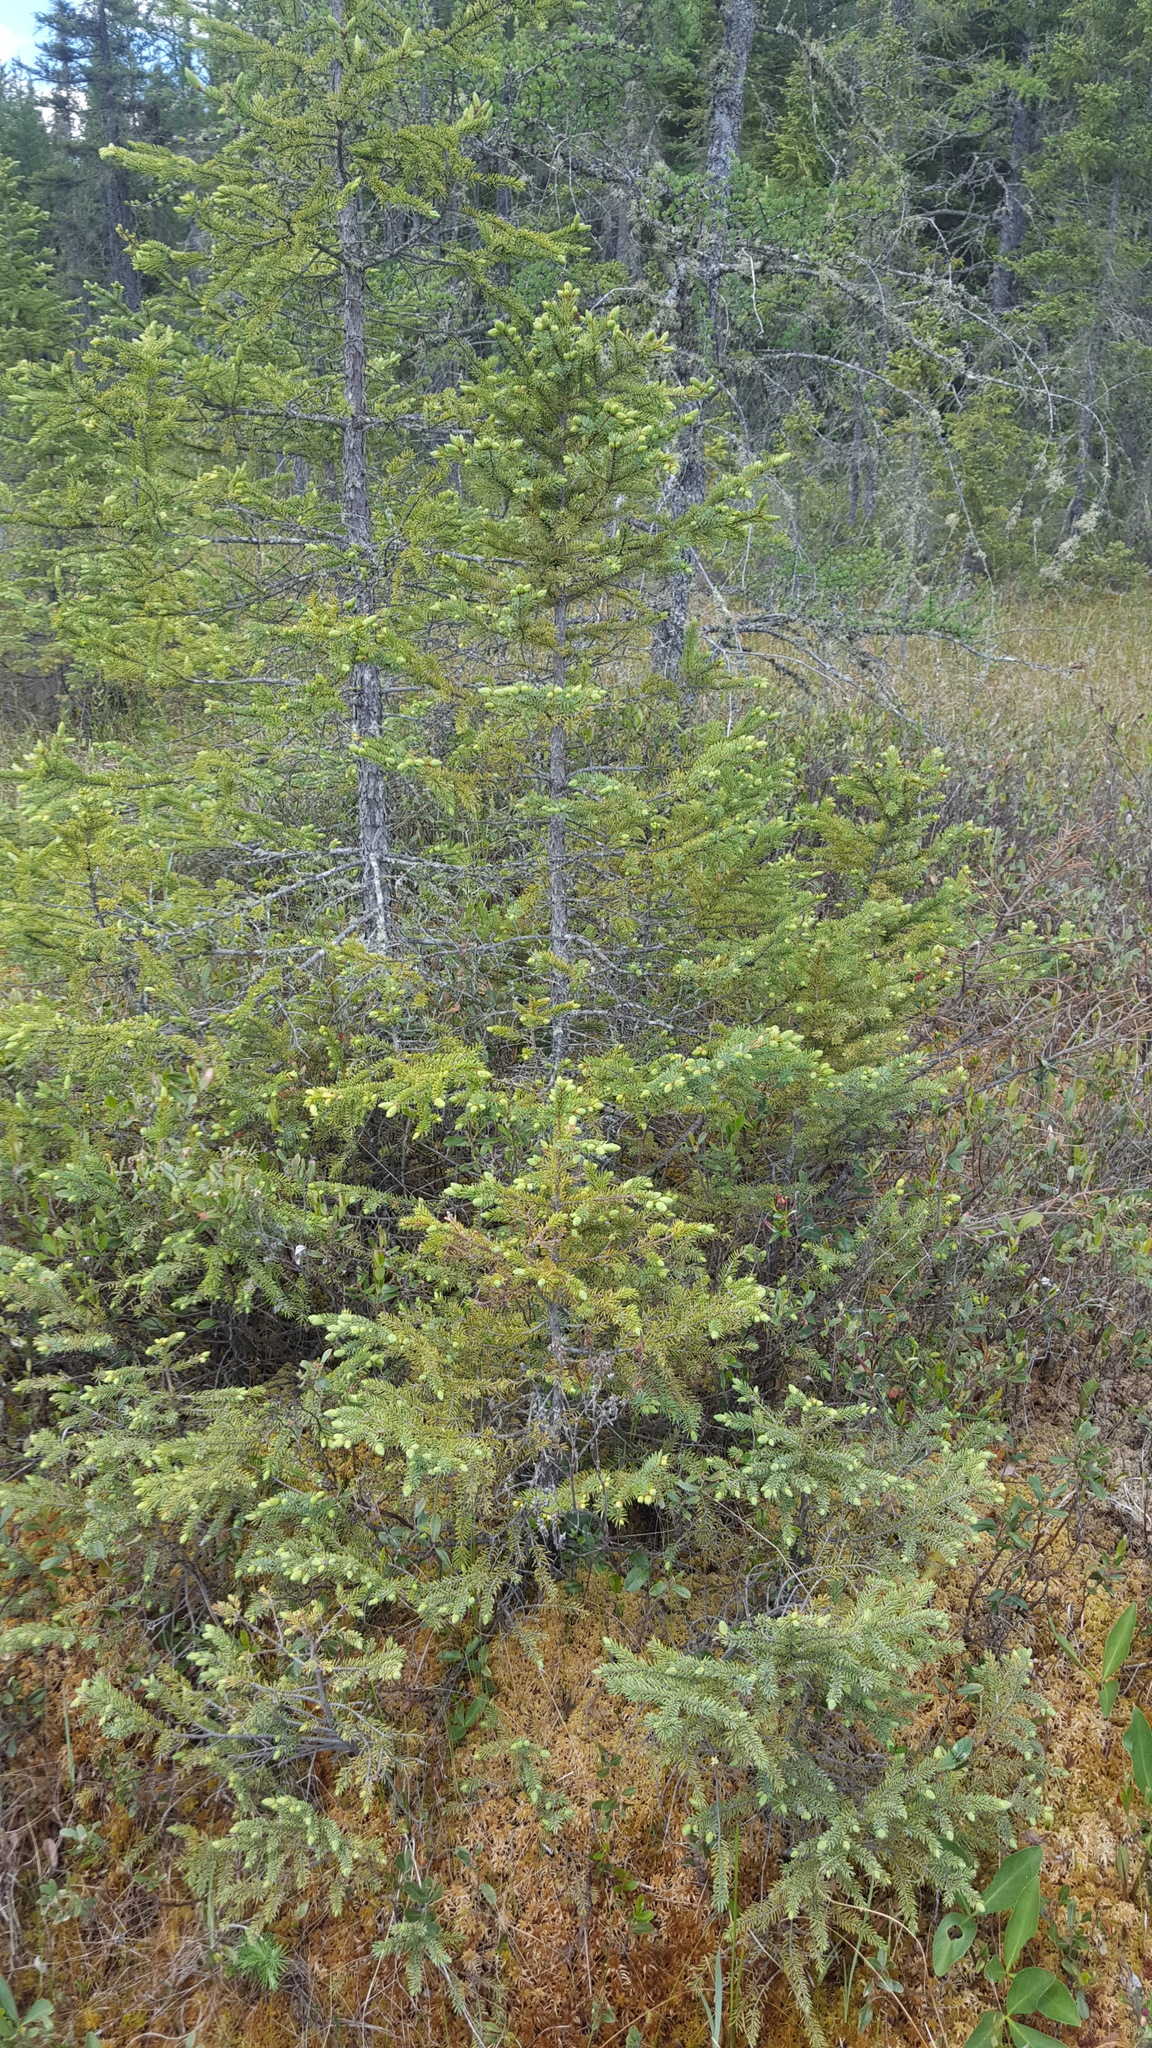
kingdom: Plantae
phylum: Tracheophyta
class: Pinopsida
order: Pinales
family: Pinaceae
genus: Picea
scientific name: Picea mariana
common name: Black spruce
